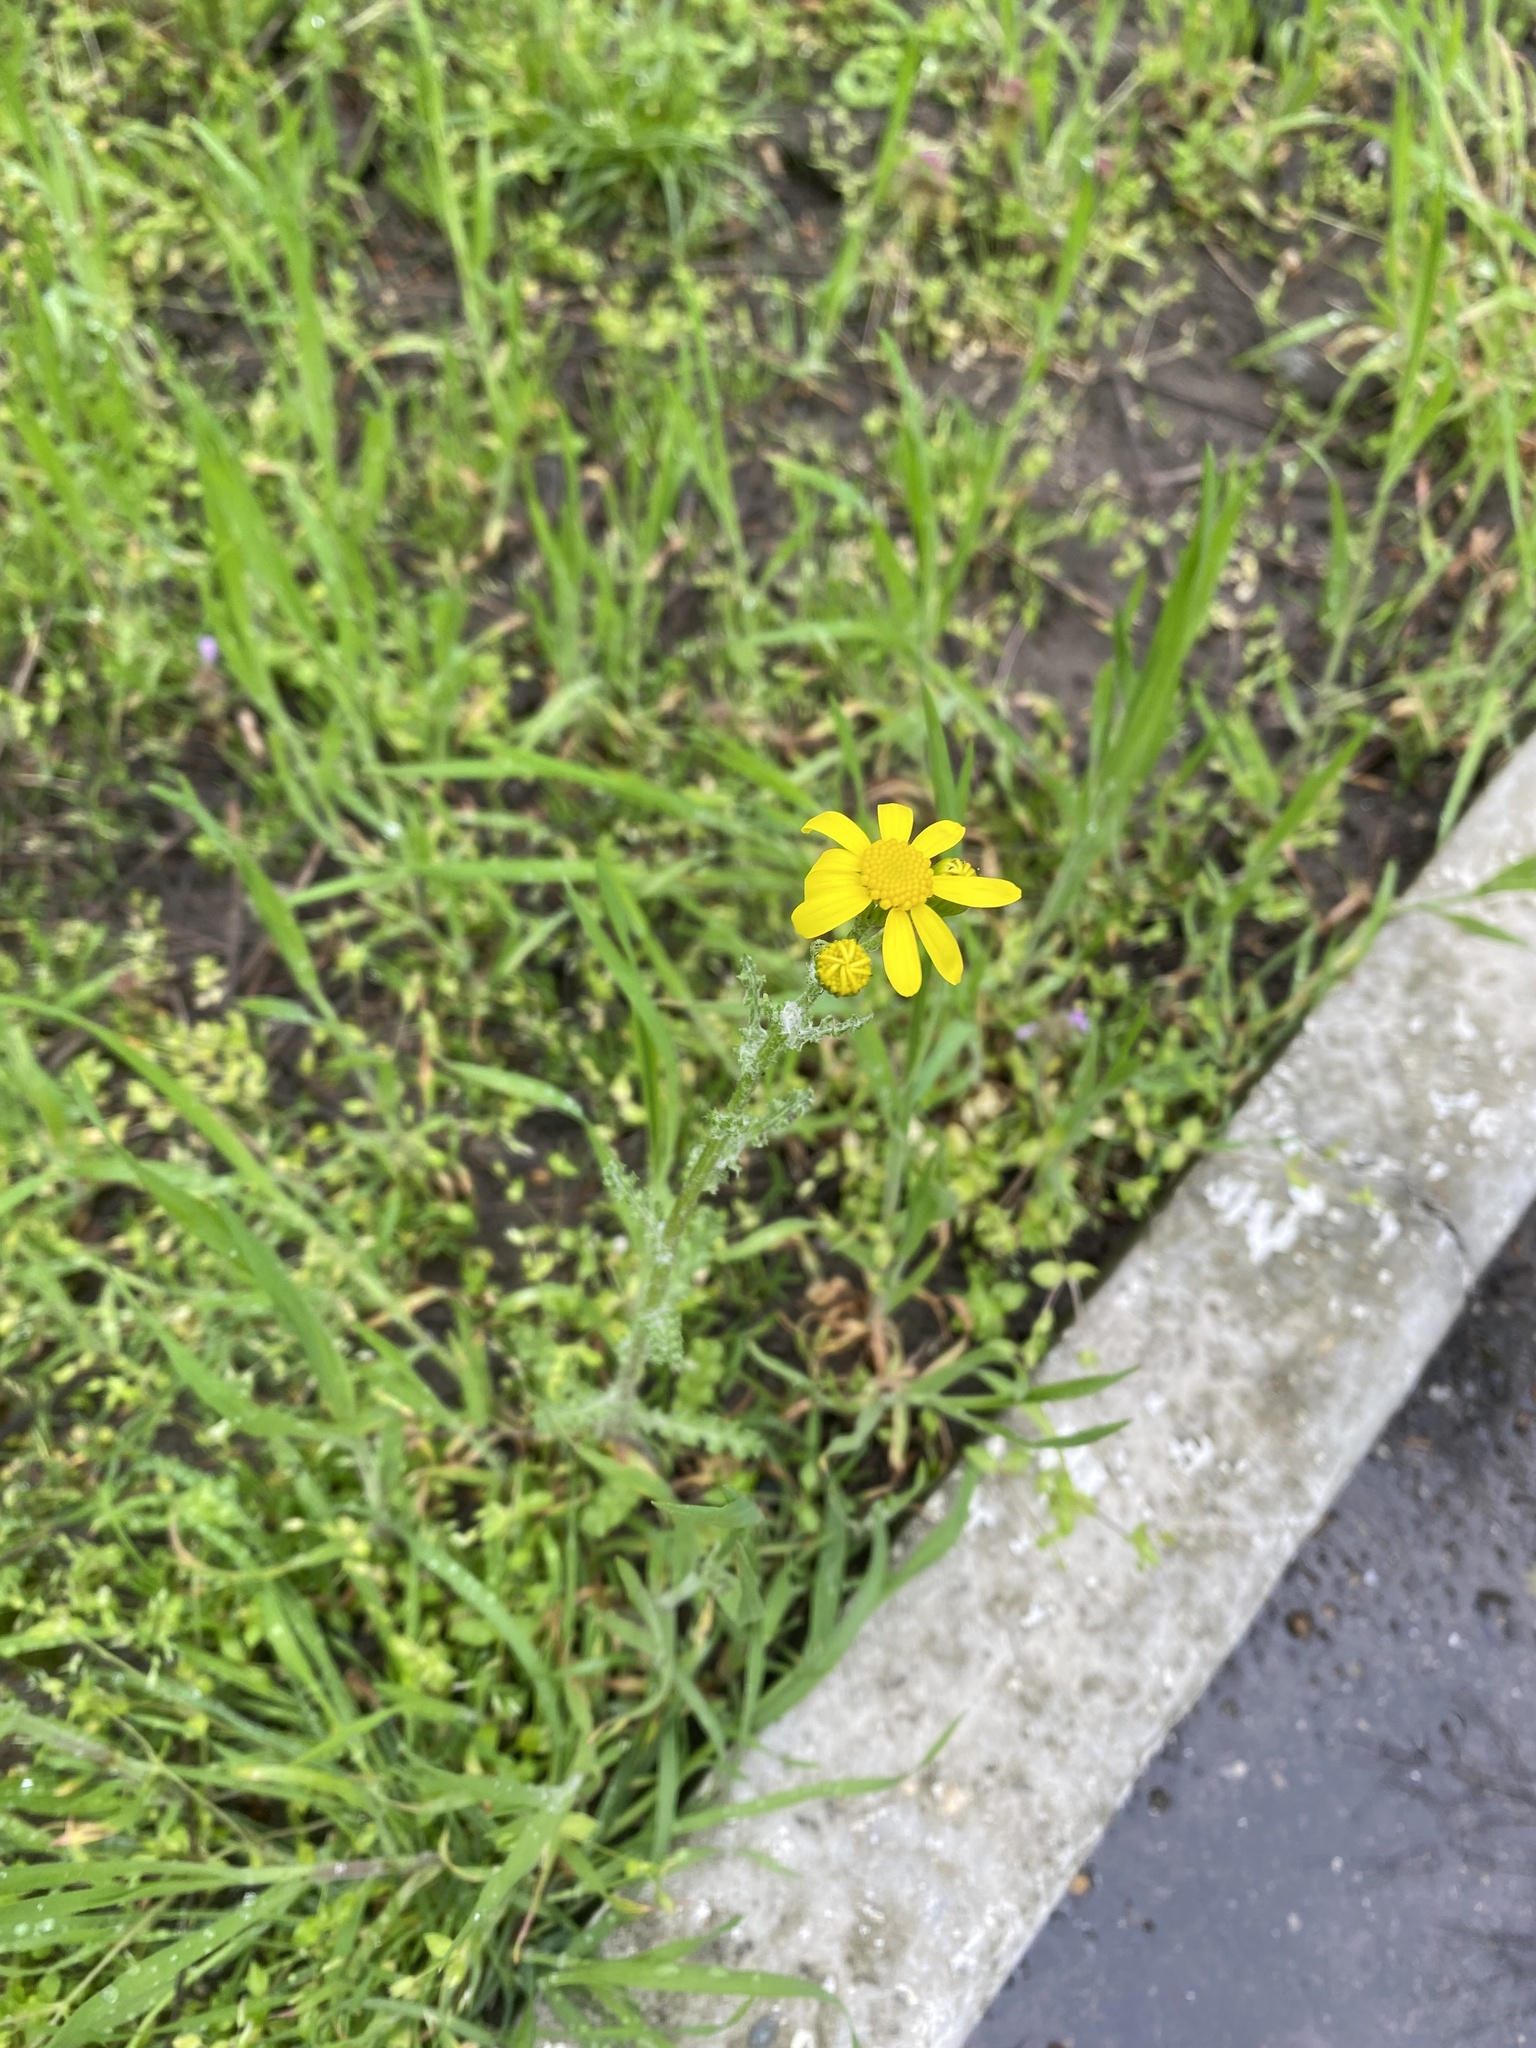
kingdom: Plantae
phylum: Tracheophyta
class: Magnoliopsida
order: Asterales
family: Asteraceae
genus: Senecio
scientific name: Senecio vernalis
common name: Eastern groundsel
